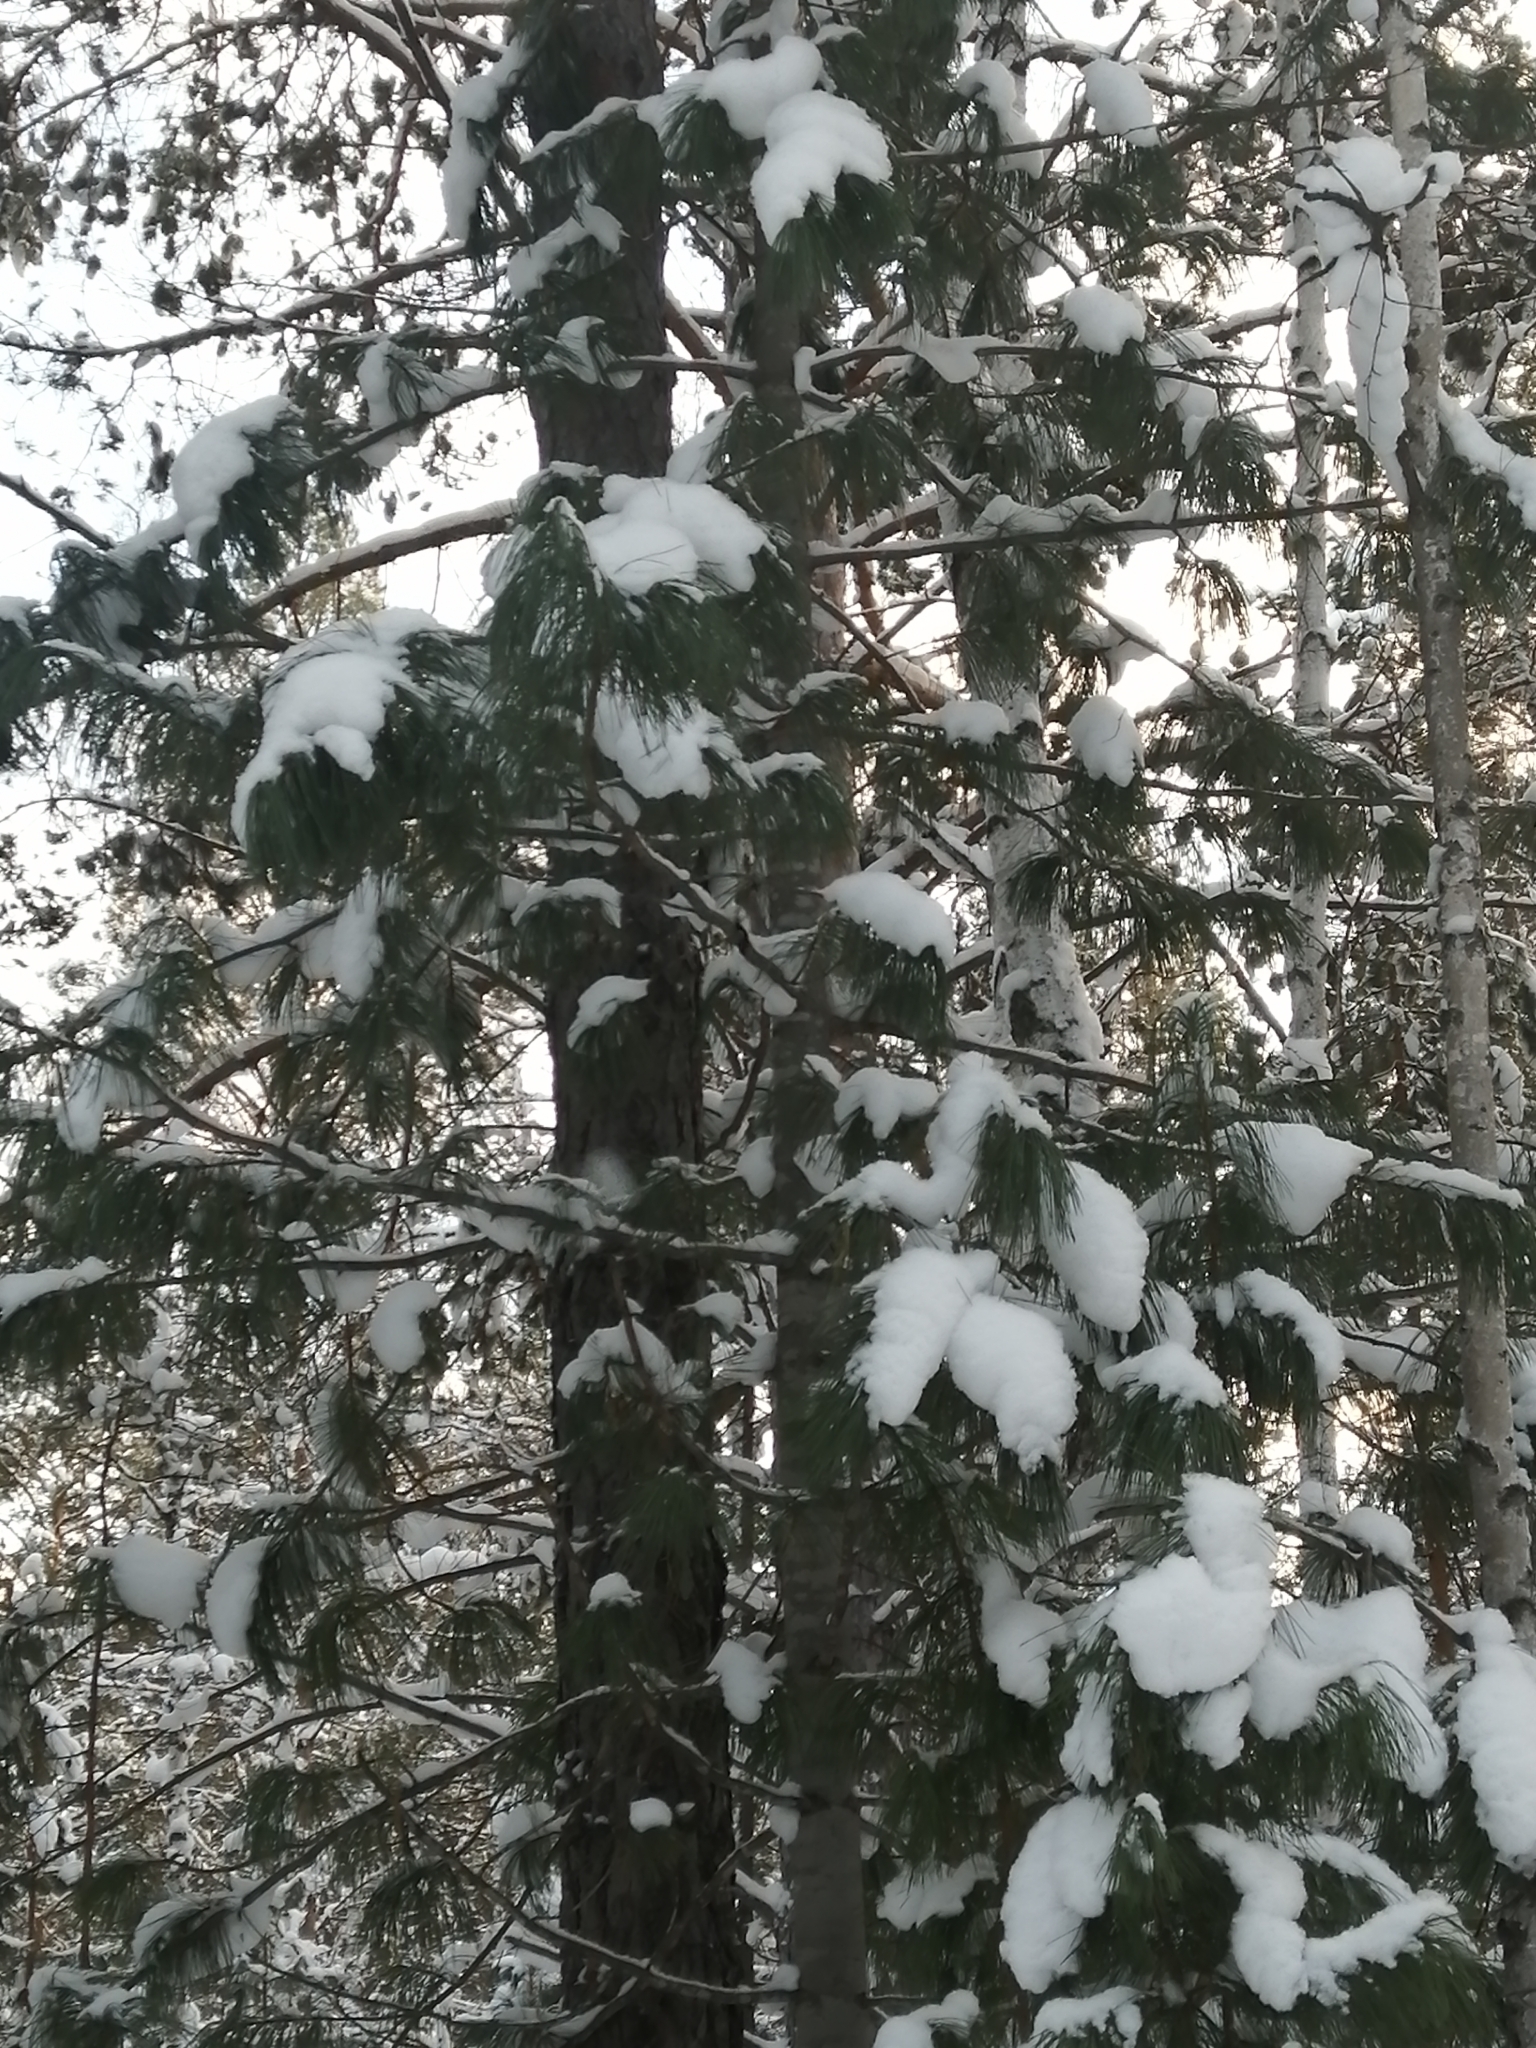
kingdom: Plantae
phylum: Tracheophyta
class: Pinopsida
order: Pinales
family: Pinaceae
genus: Pinus
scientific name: Pinus sibirica
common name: Siberian pine
